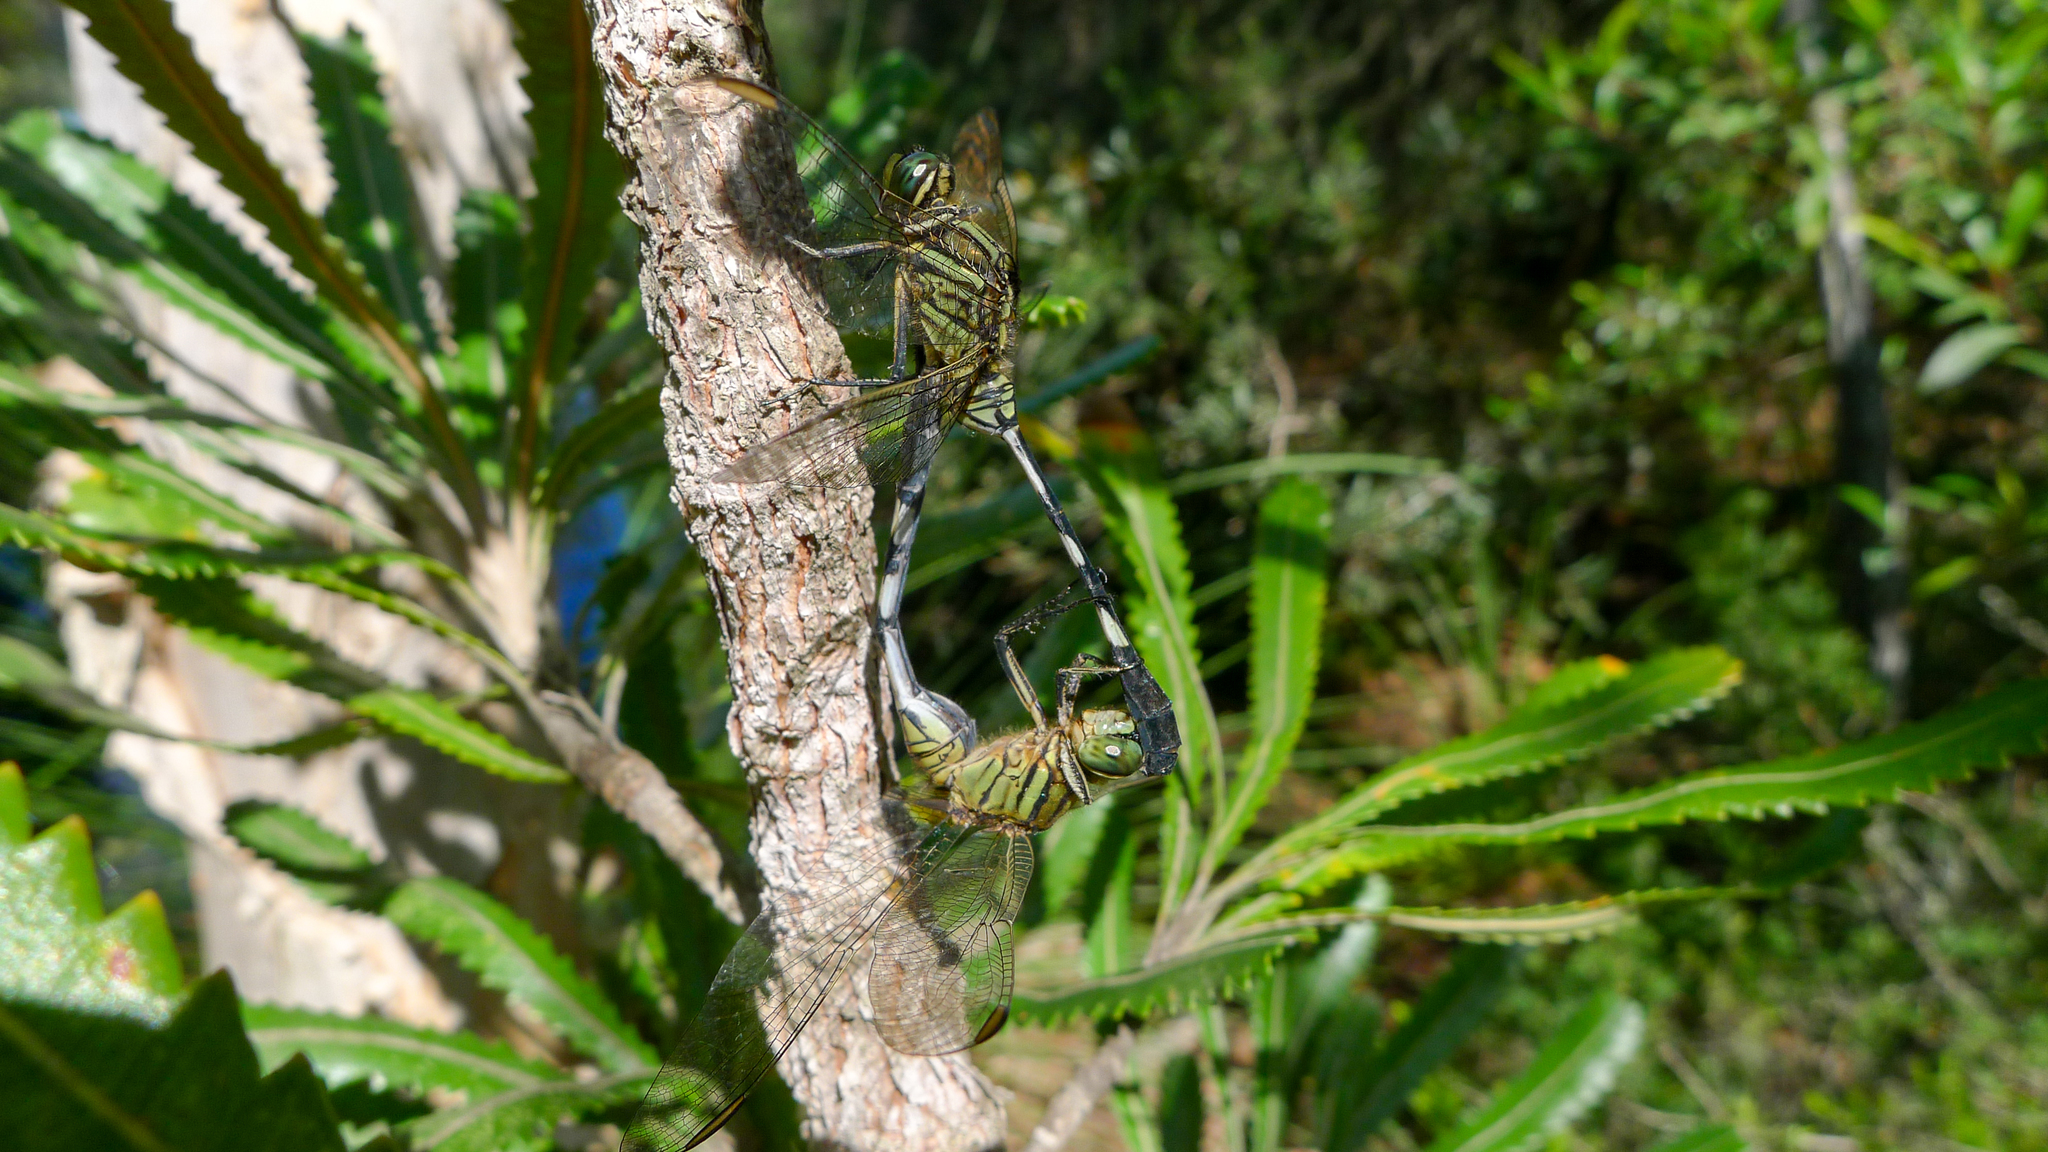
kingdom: Animalia
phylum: Arthropoda
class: Insecta
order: Odonata
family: Libellulidae
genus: Orthetrum
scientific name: Orthetrum sabina
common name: Slender skimmer
